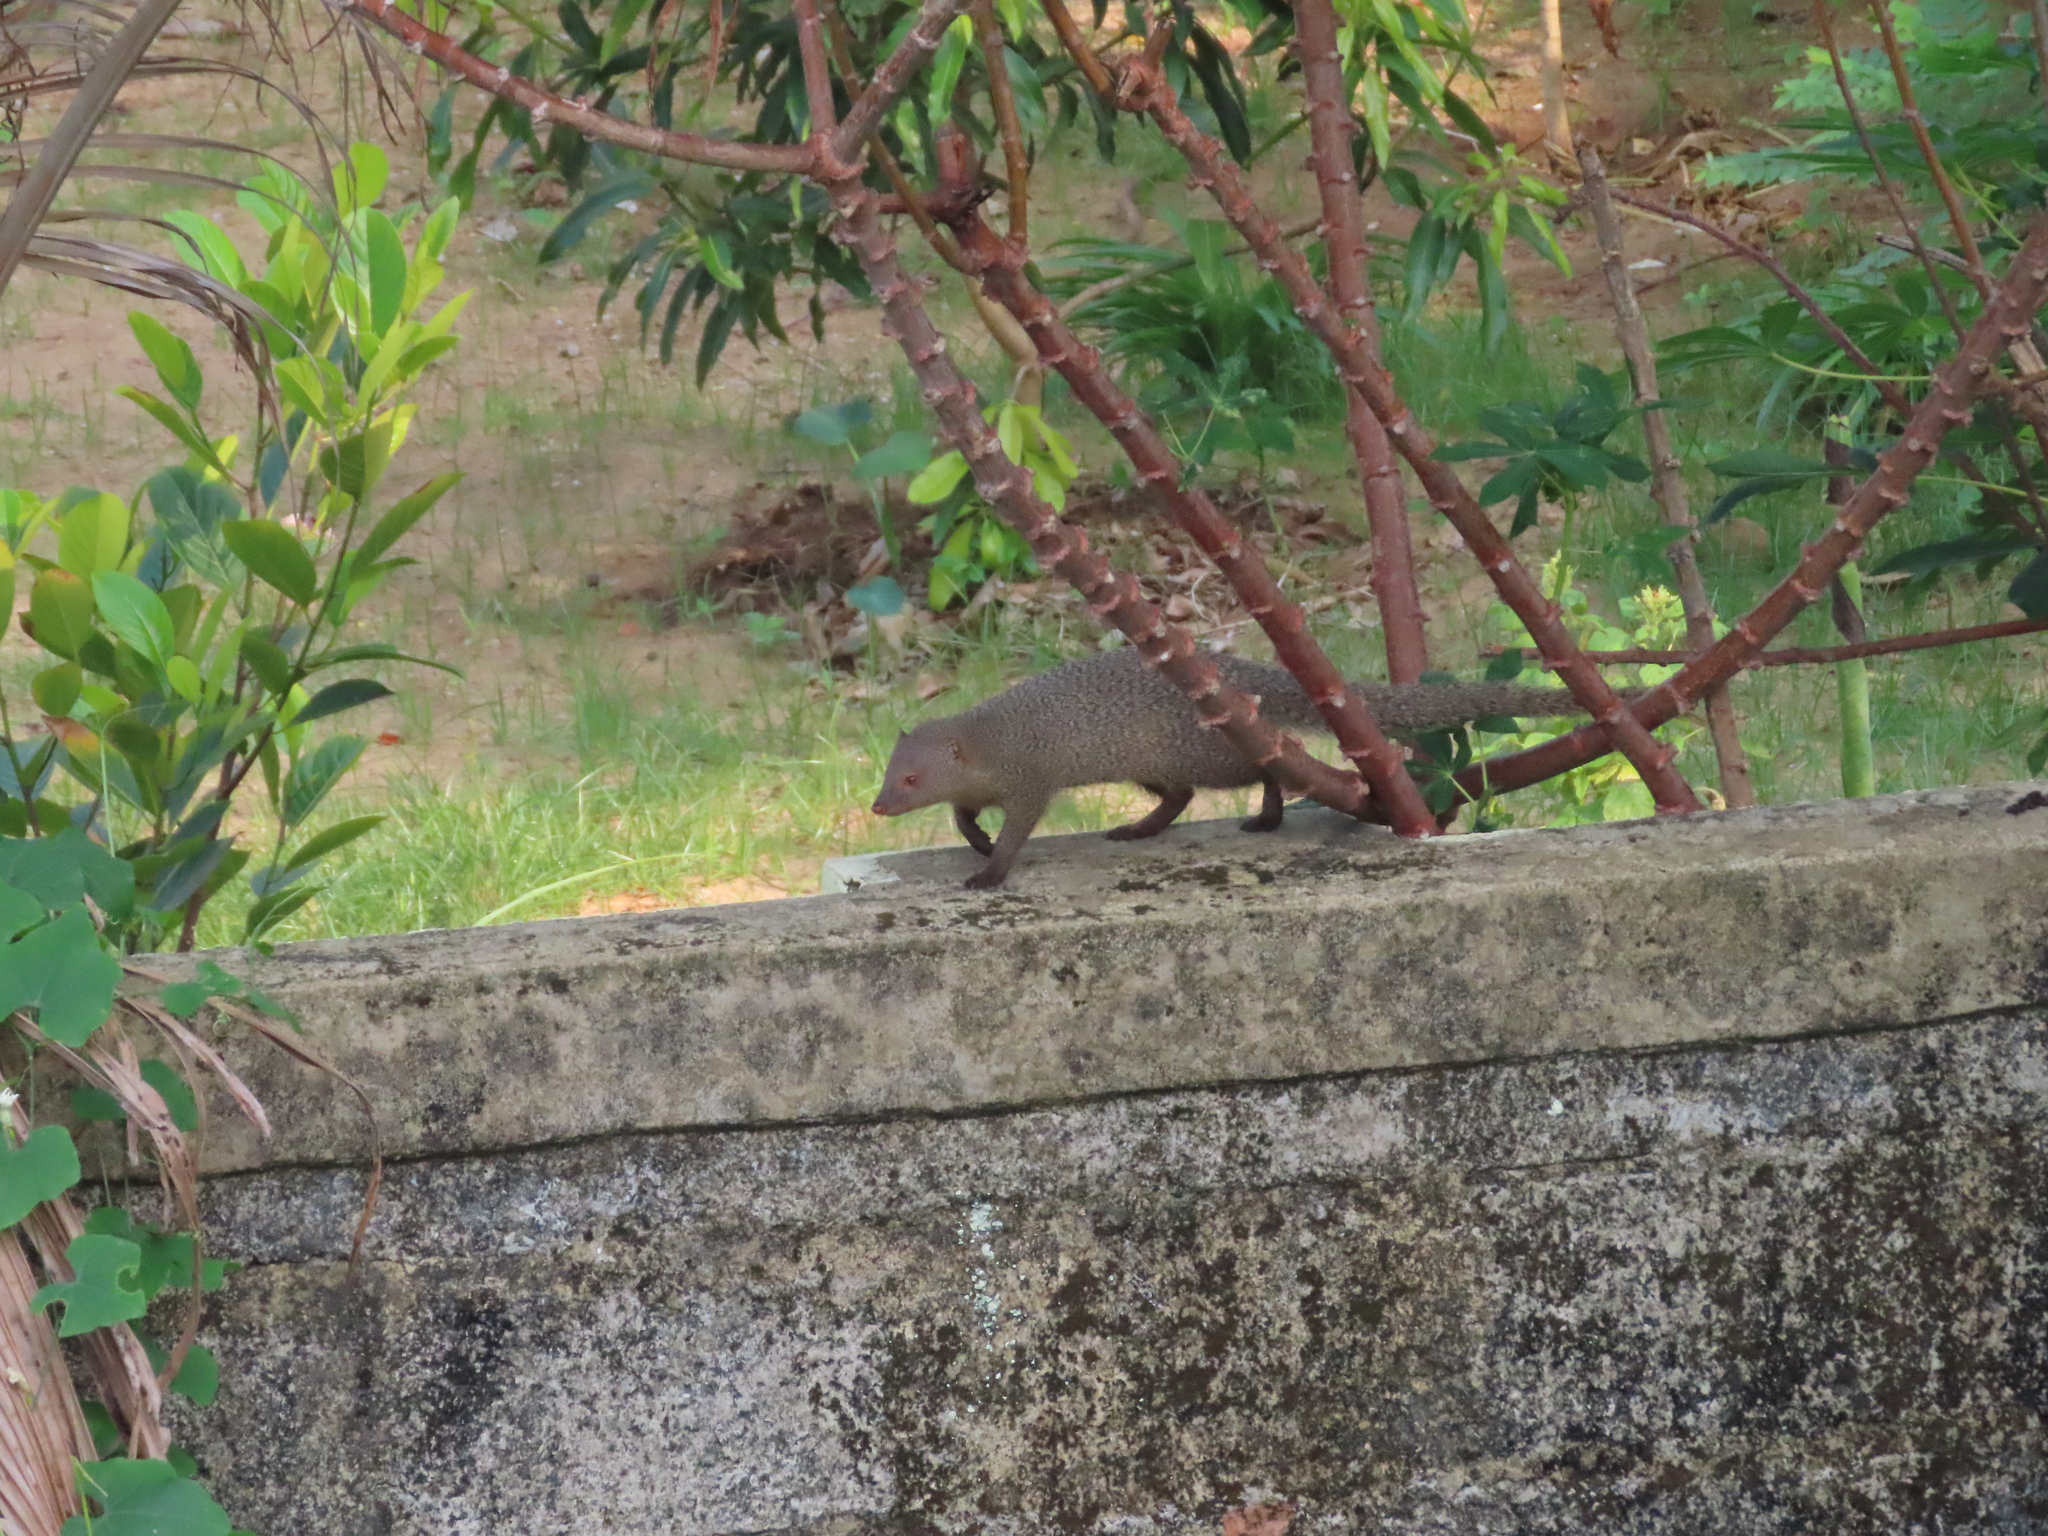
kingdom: Animalia
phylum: Chordata
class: Mammalia
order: Carnivora
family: Herpestidae
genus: Herpestes
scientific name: Herpestes edwardsi
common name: Indian gray mongoose
